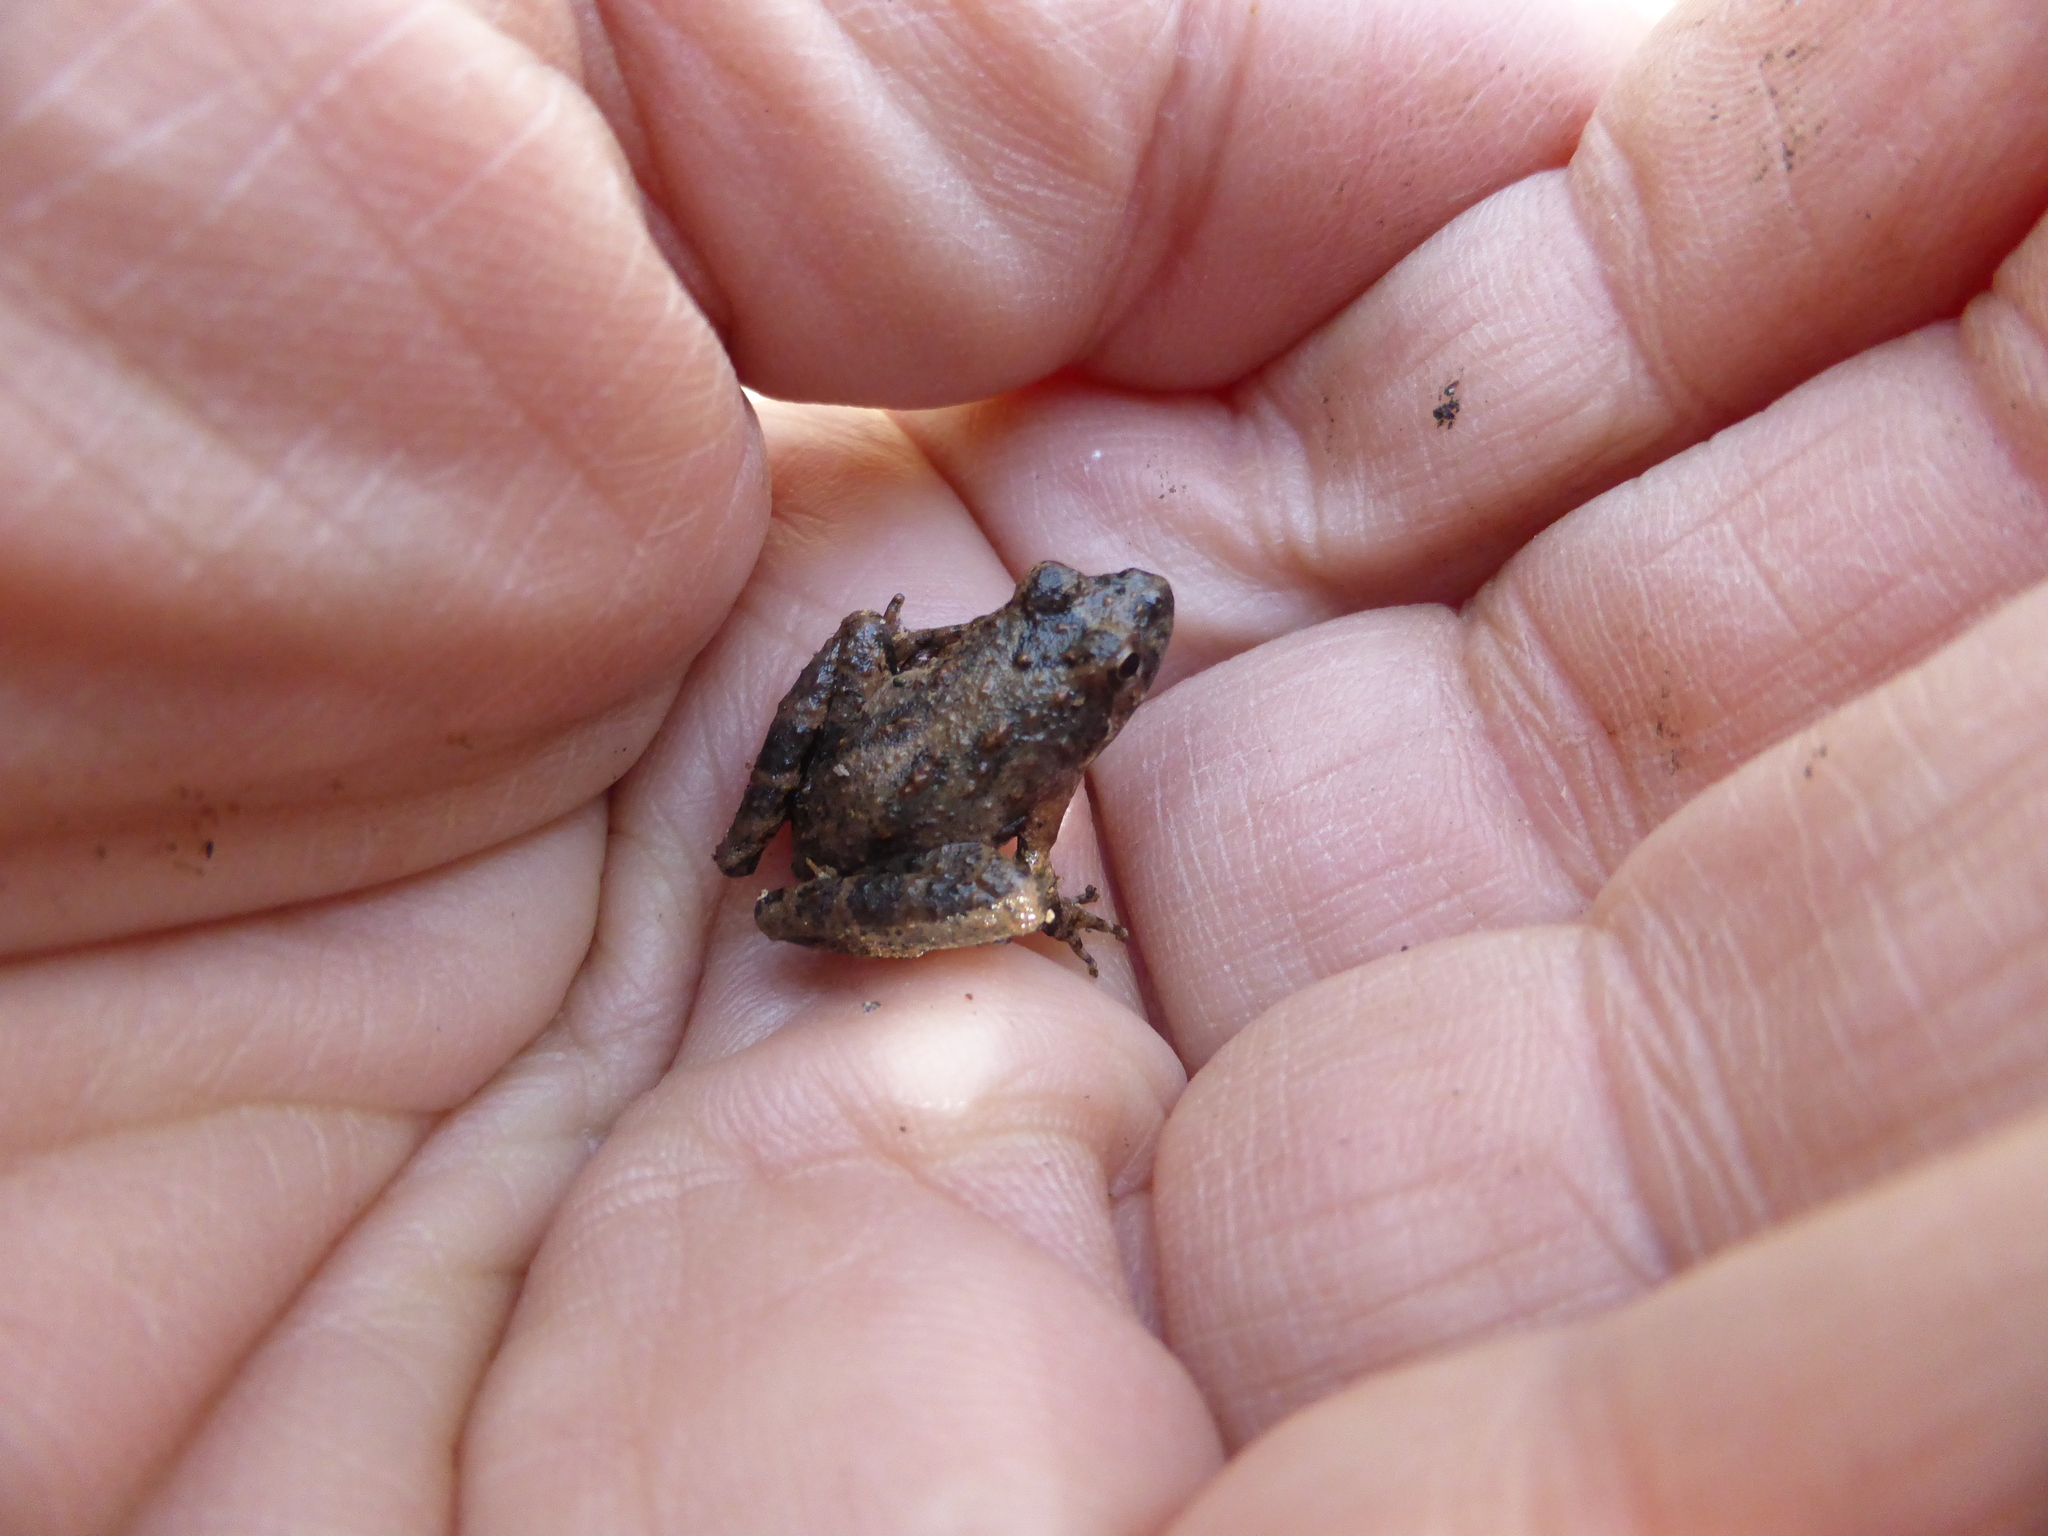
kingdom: Animalia
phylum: Chordata
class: Amphibia
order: Anura
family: Hylidae
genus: Acris
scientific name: Acris blanchardi
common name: Blanchard's cricket frog
